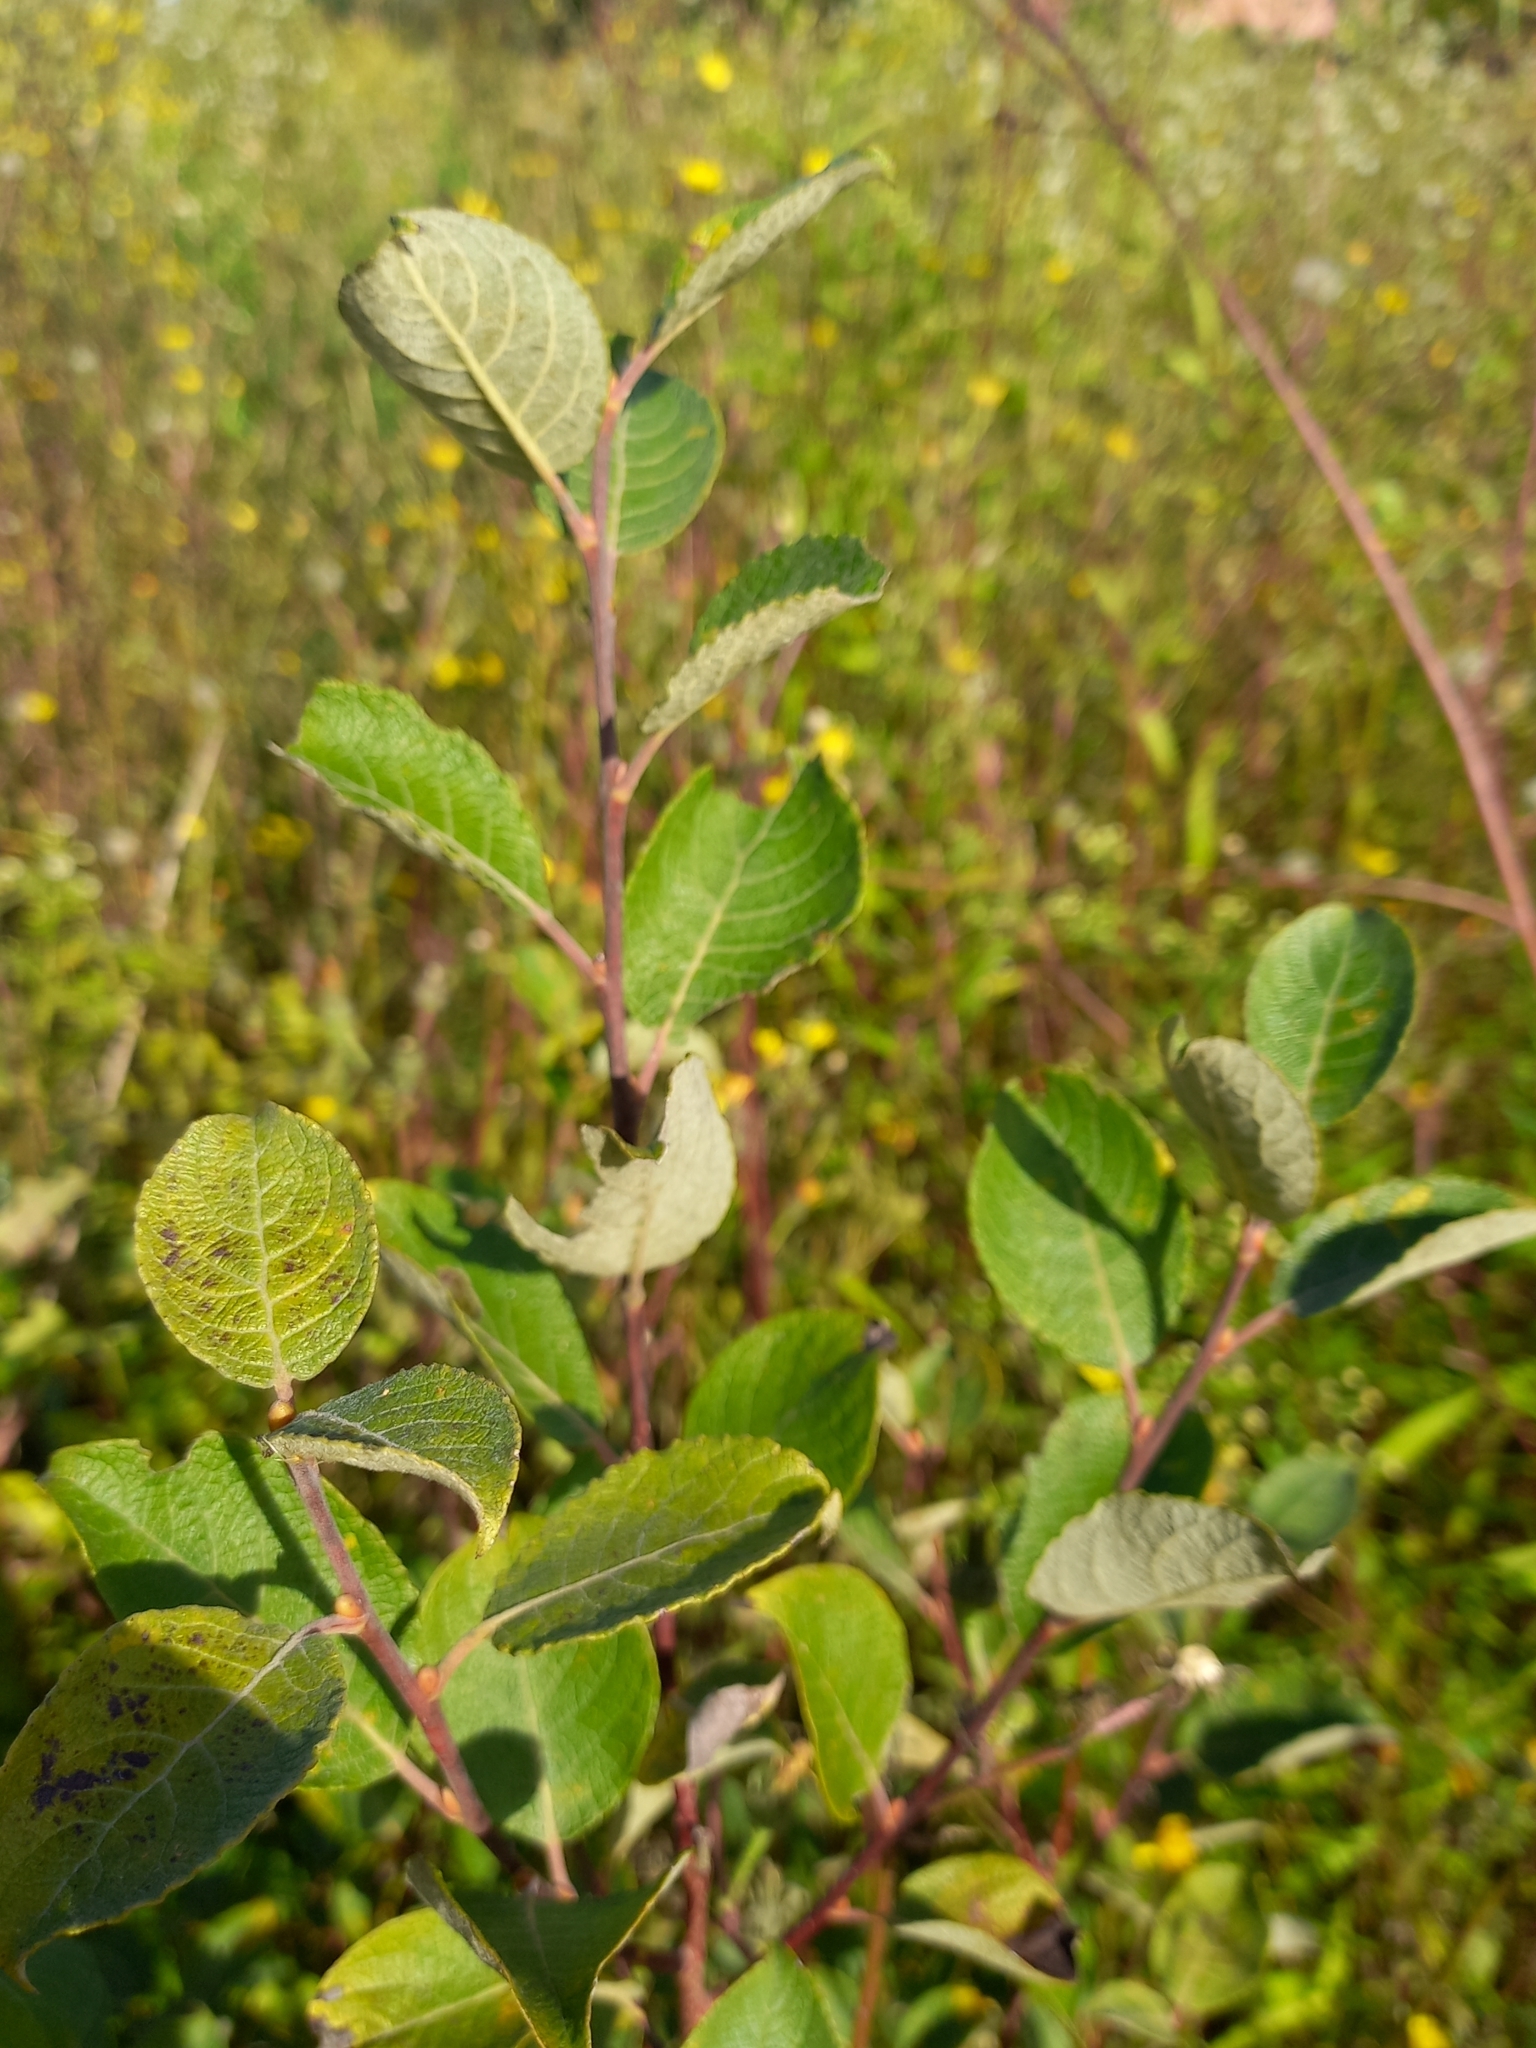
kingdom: Plantae
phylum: Tracheophyta
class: Magnoliopsida
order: Malpighiales
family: Salicaceae
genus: Salix
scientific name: Salix caprea
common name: Goat willow
